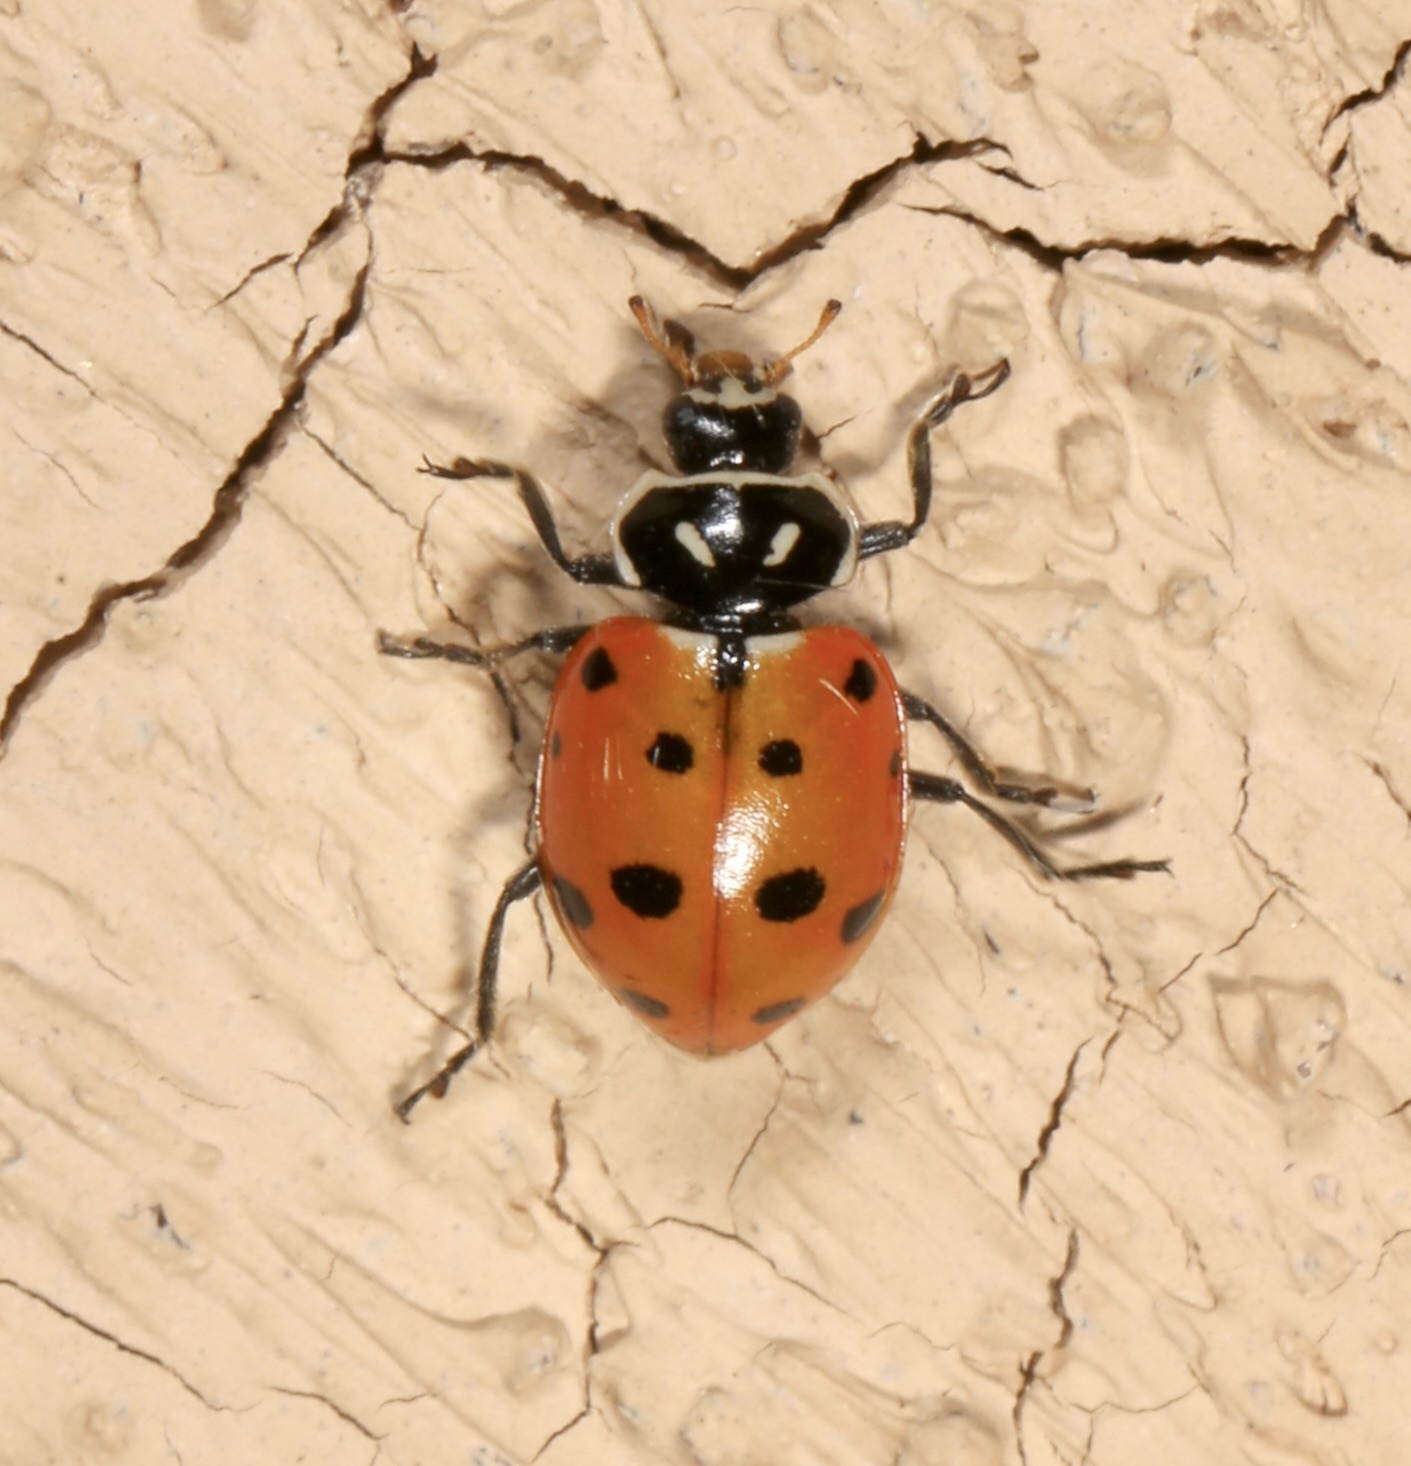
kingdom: Animalia
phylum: Arthropoda
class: Insecta
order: Coleoptera
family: Coccinellidae
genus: Hippodamia
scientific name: Hippodamia convergens
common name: Convergent lady beetle
